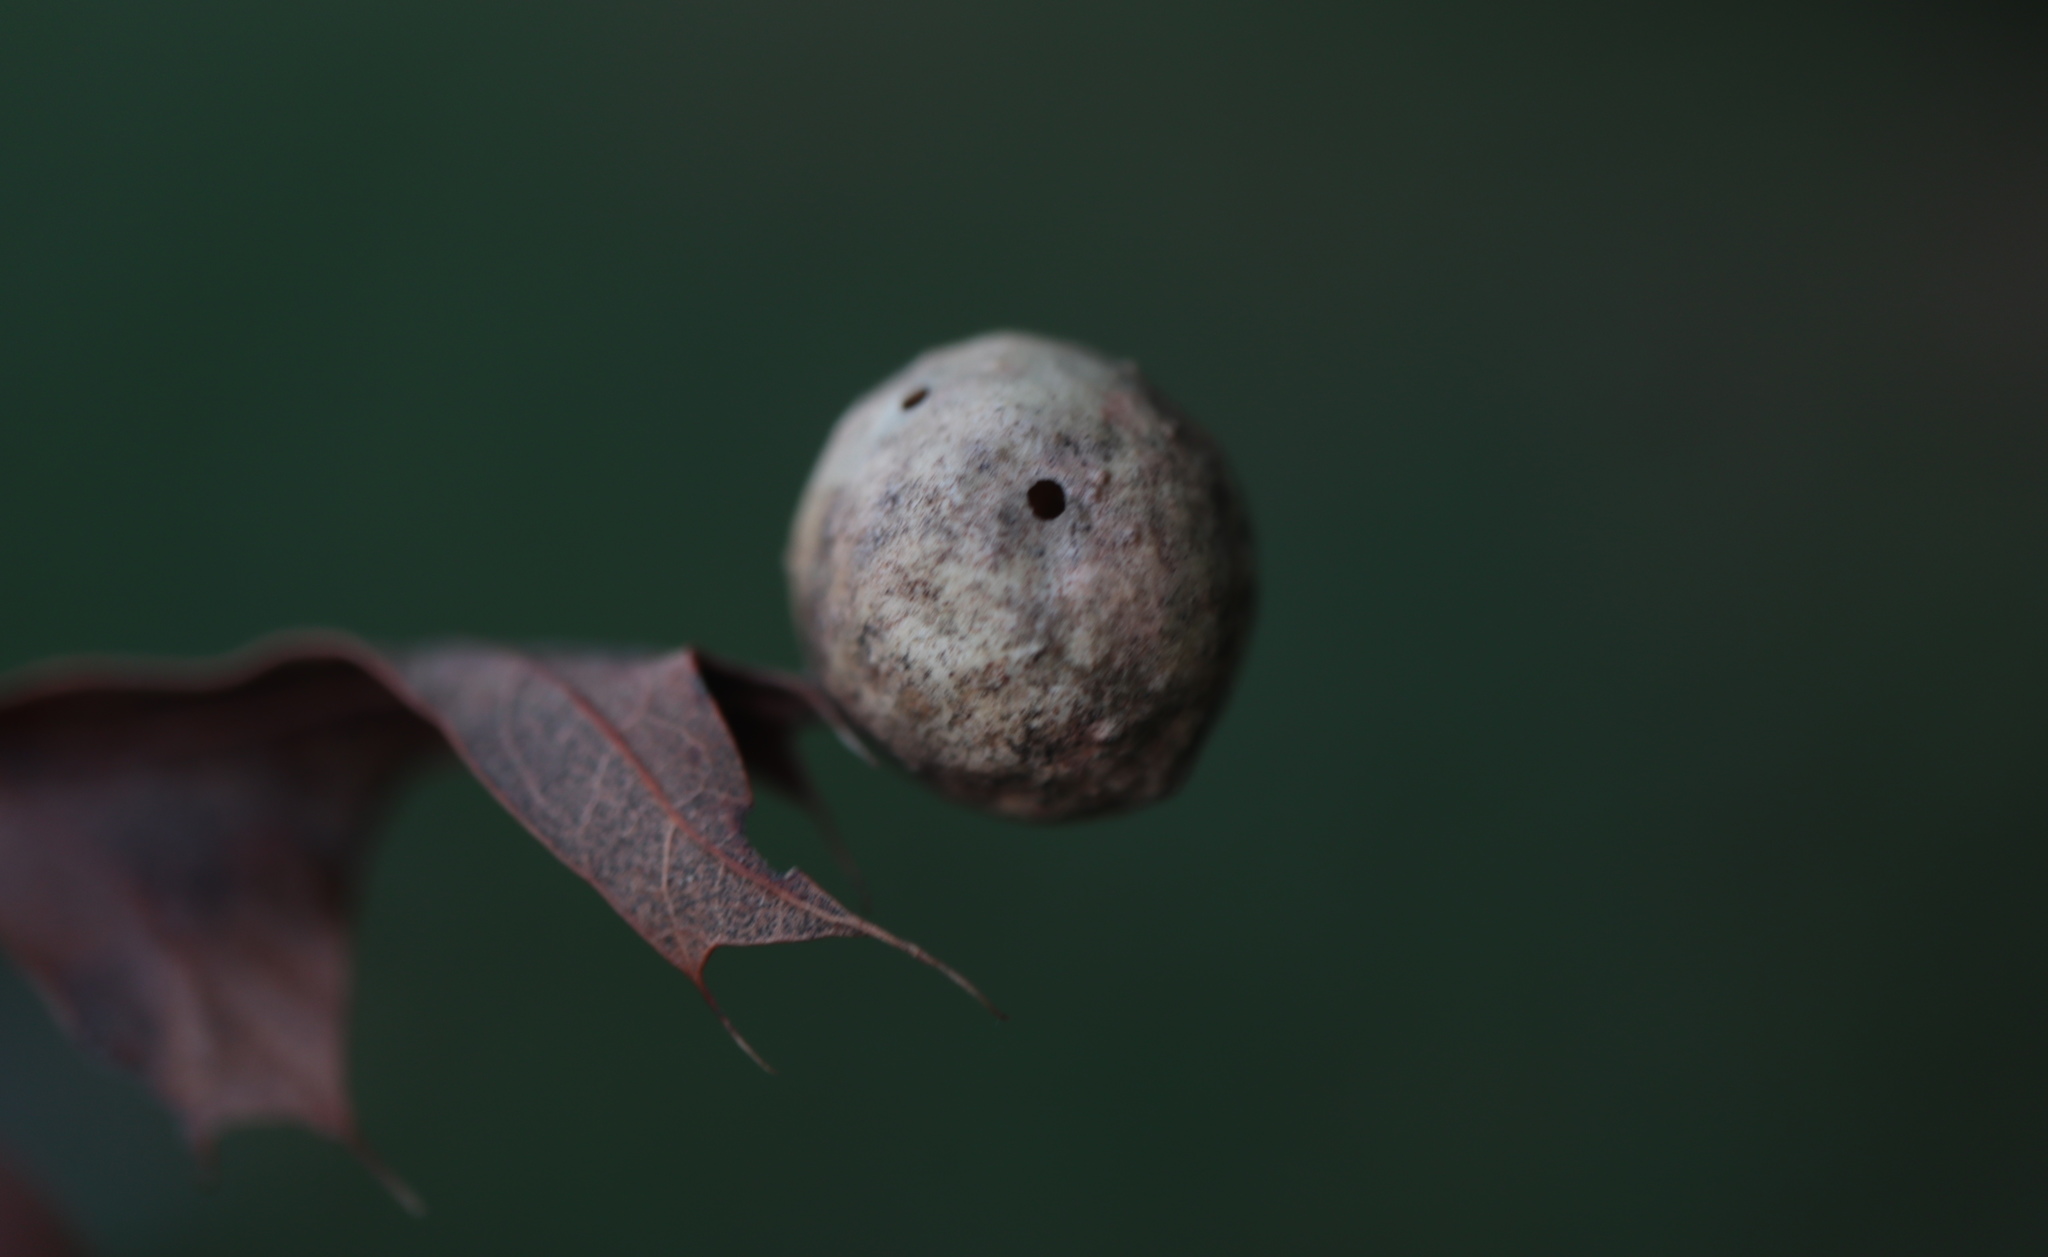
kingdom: Animalia
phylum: Arthropoda
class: Insecta
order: Hymenoptera
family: Cynipidae
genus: Amphibolips
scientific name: Amphibolips
